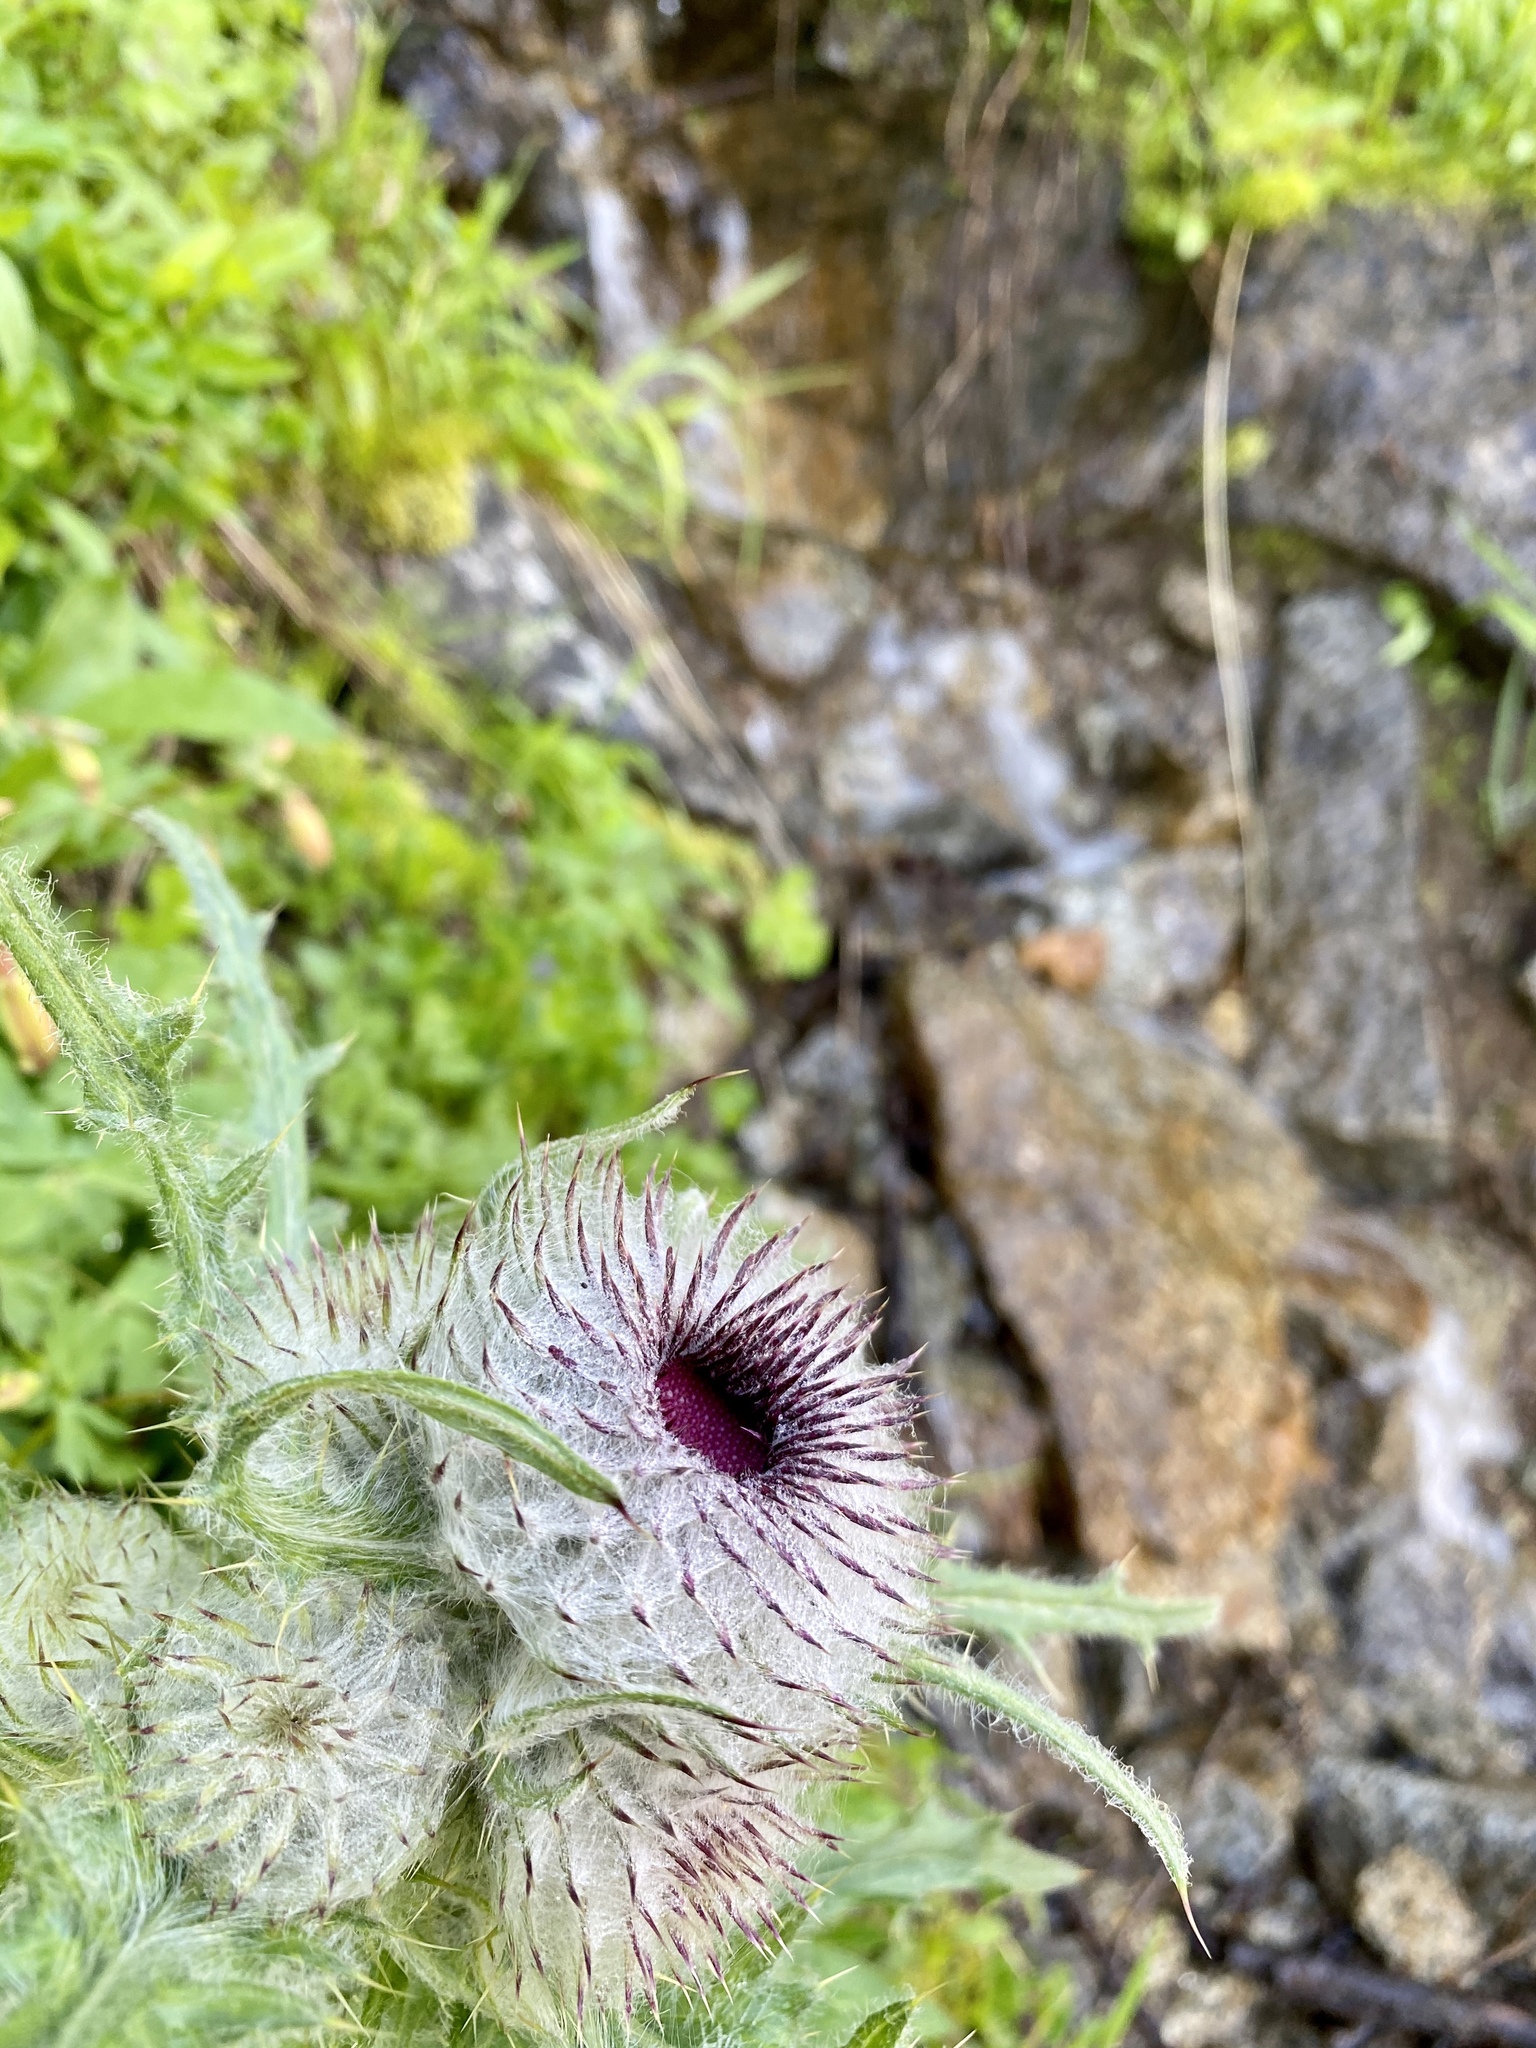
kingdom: Plantae
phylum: Tracheophyta
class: Magnoliopsida
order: Asterales
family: Asteraceae
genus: Cirsium
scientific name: Cirsium edule
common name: Indian thistle
